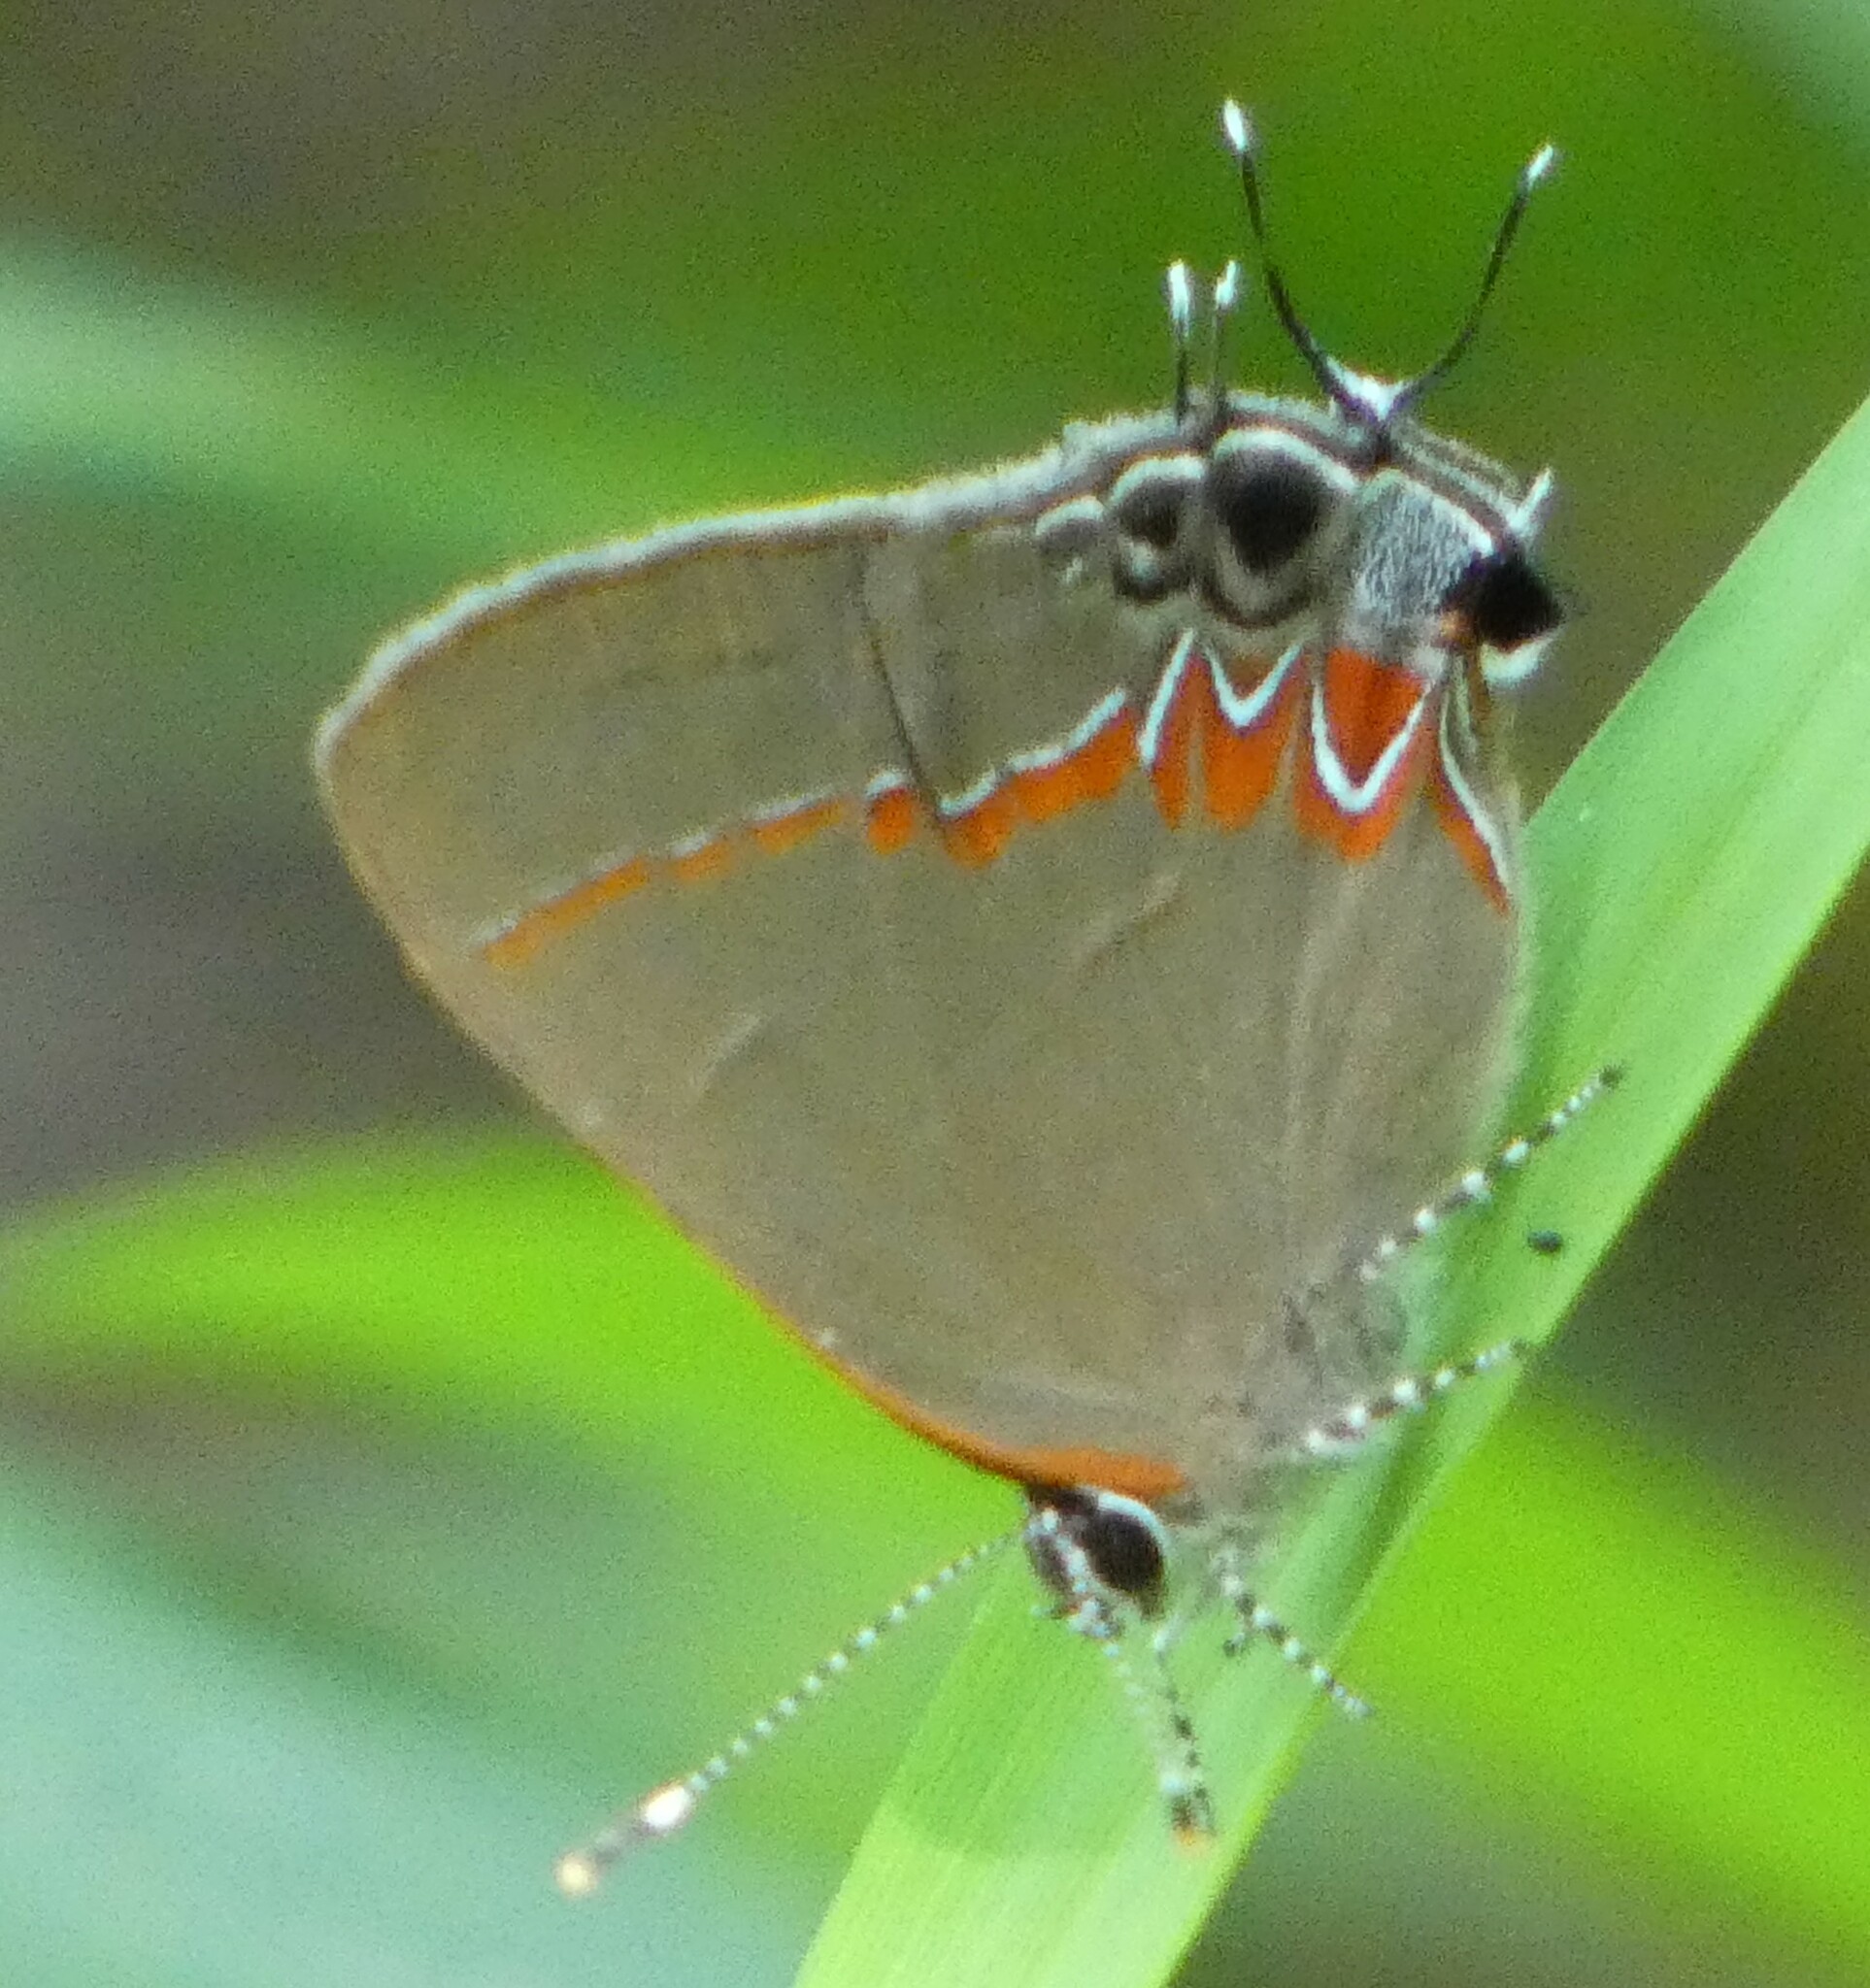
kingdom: Animalia
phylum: Arthropoda
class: Insecta
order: Lepidoptera
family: Lycaenidae
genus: Calycopis
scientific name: Calycopis cecrops
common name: Red-banded hairstreak
